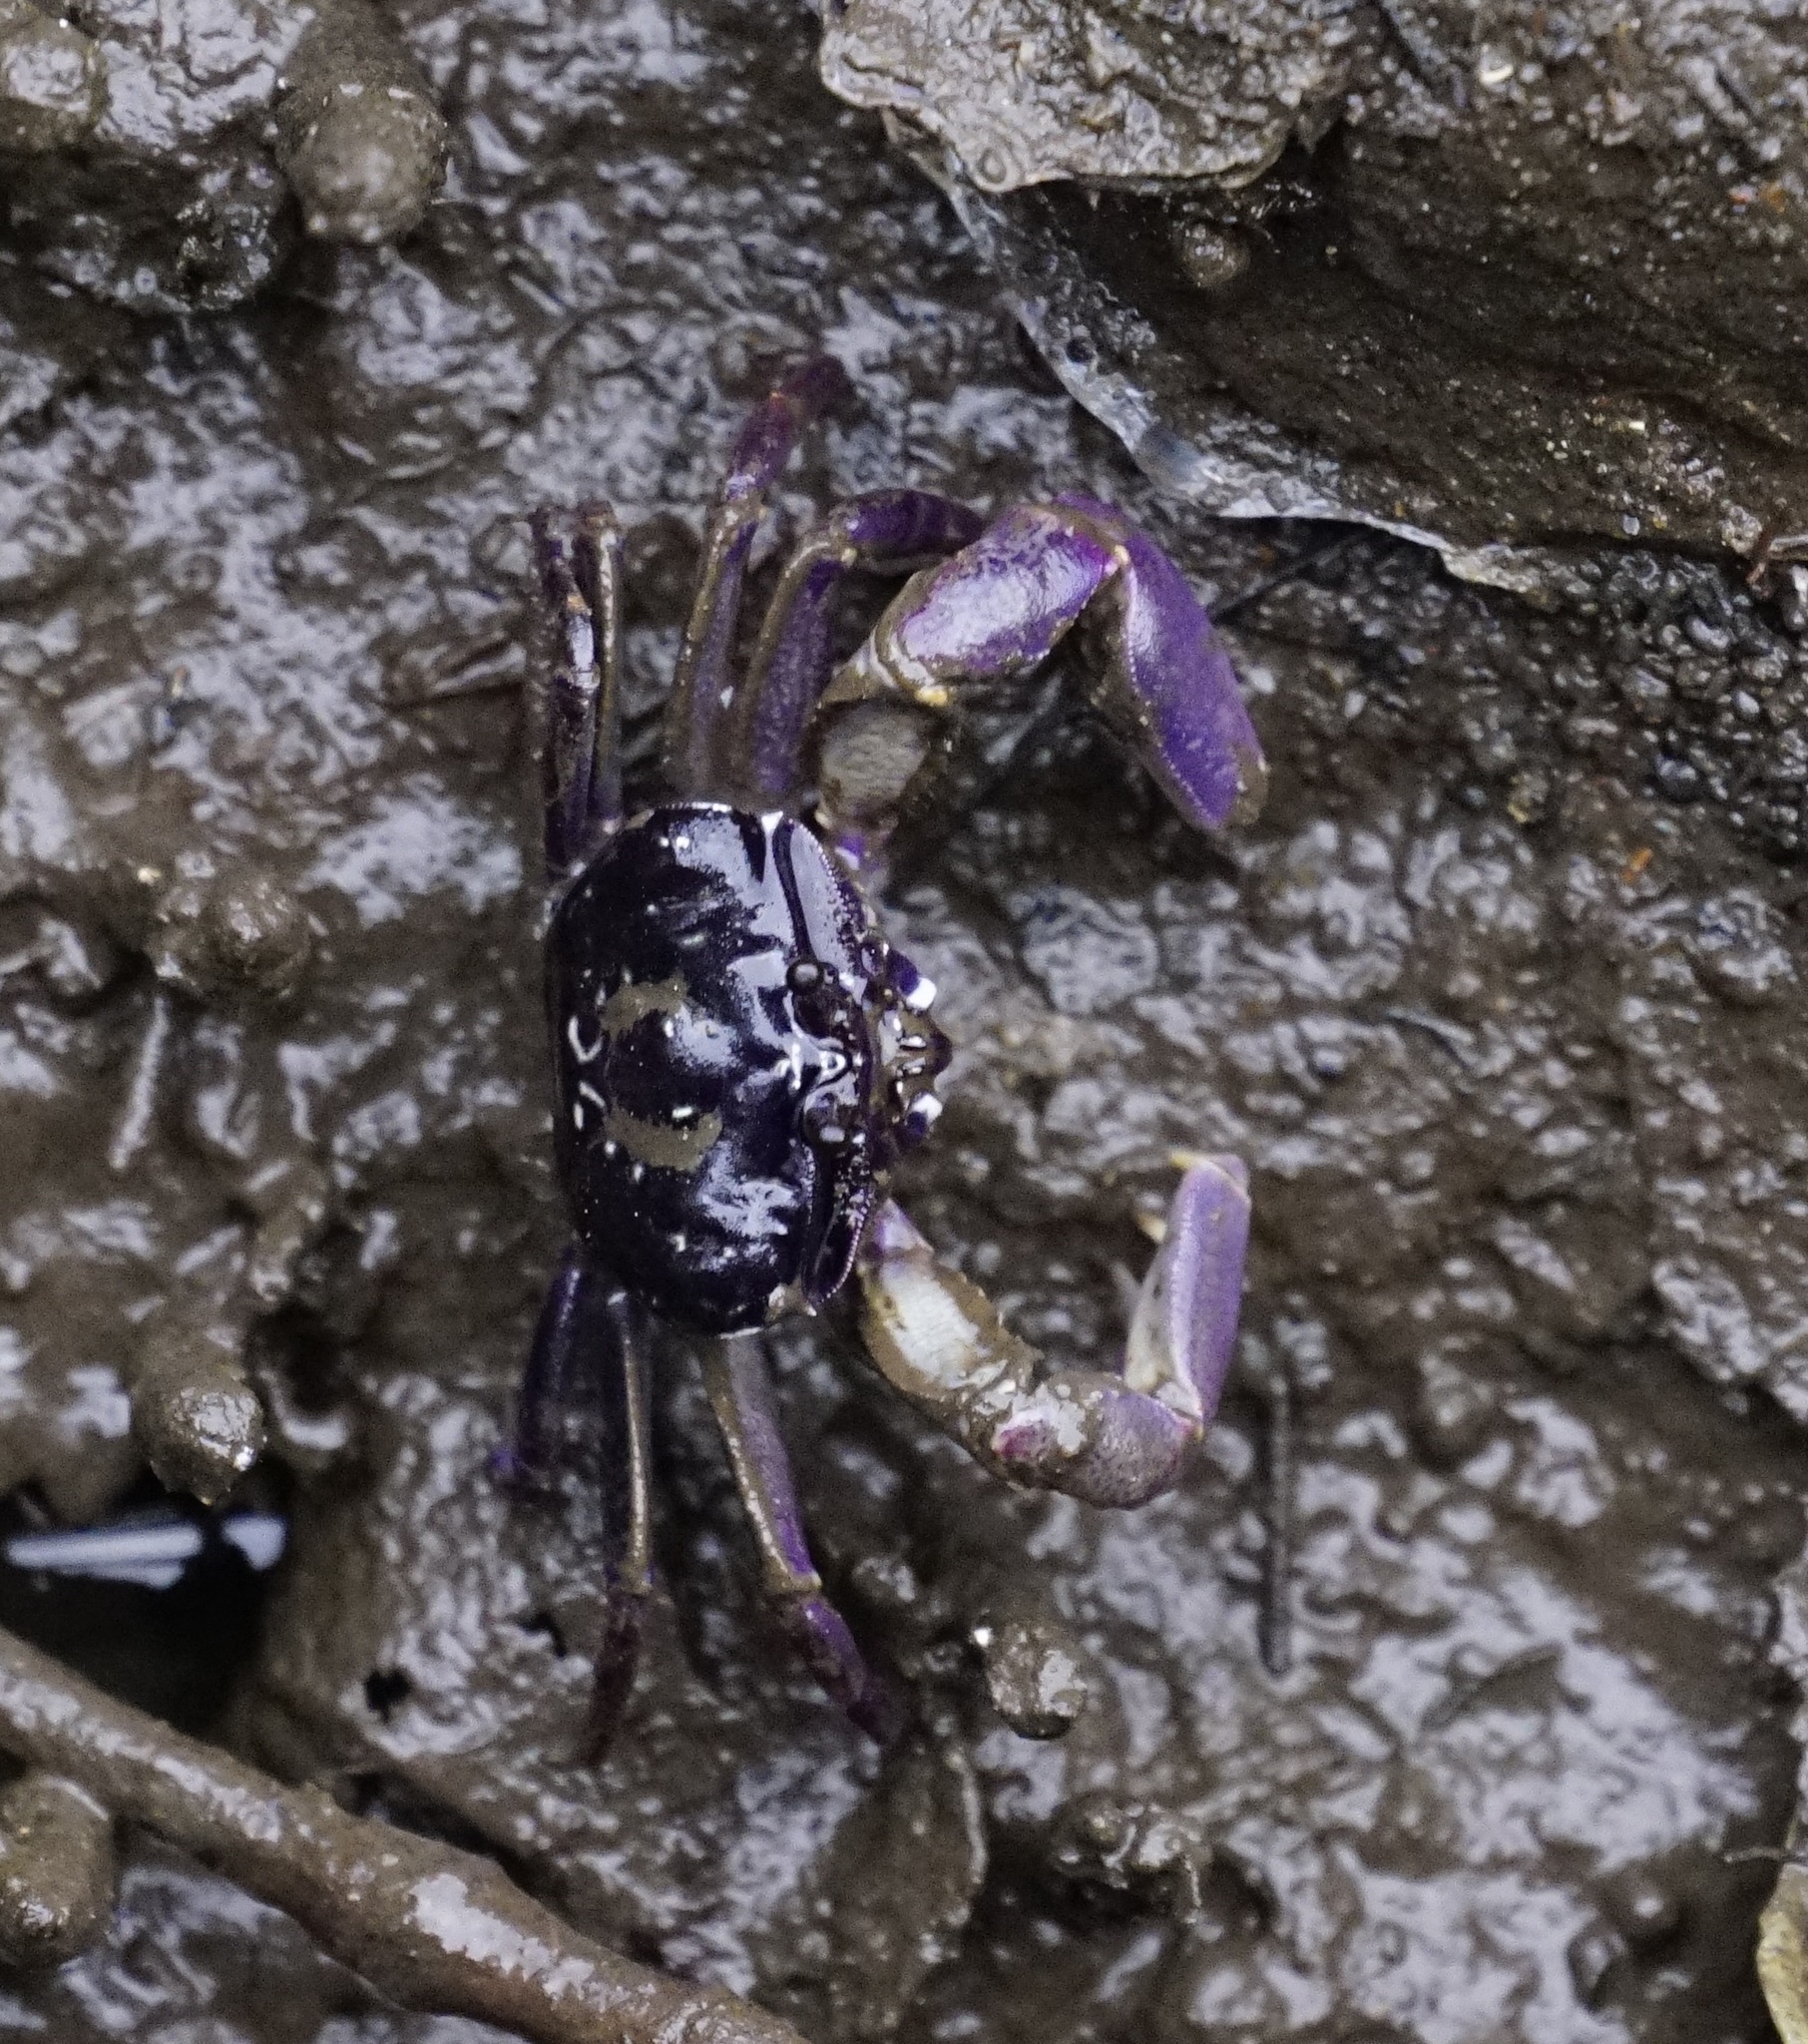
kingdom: Animalia
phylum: Arthropoda
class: Malacostraca
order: Decapoda
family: Heloeciidae
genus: Heloecius
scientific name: Heloecius cordiformis
